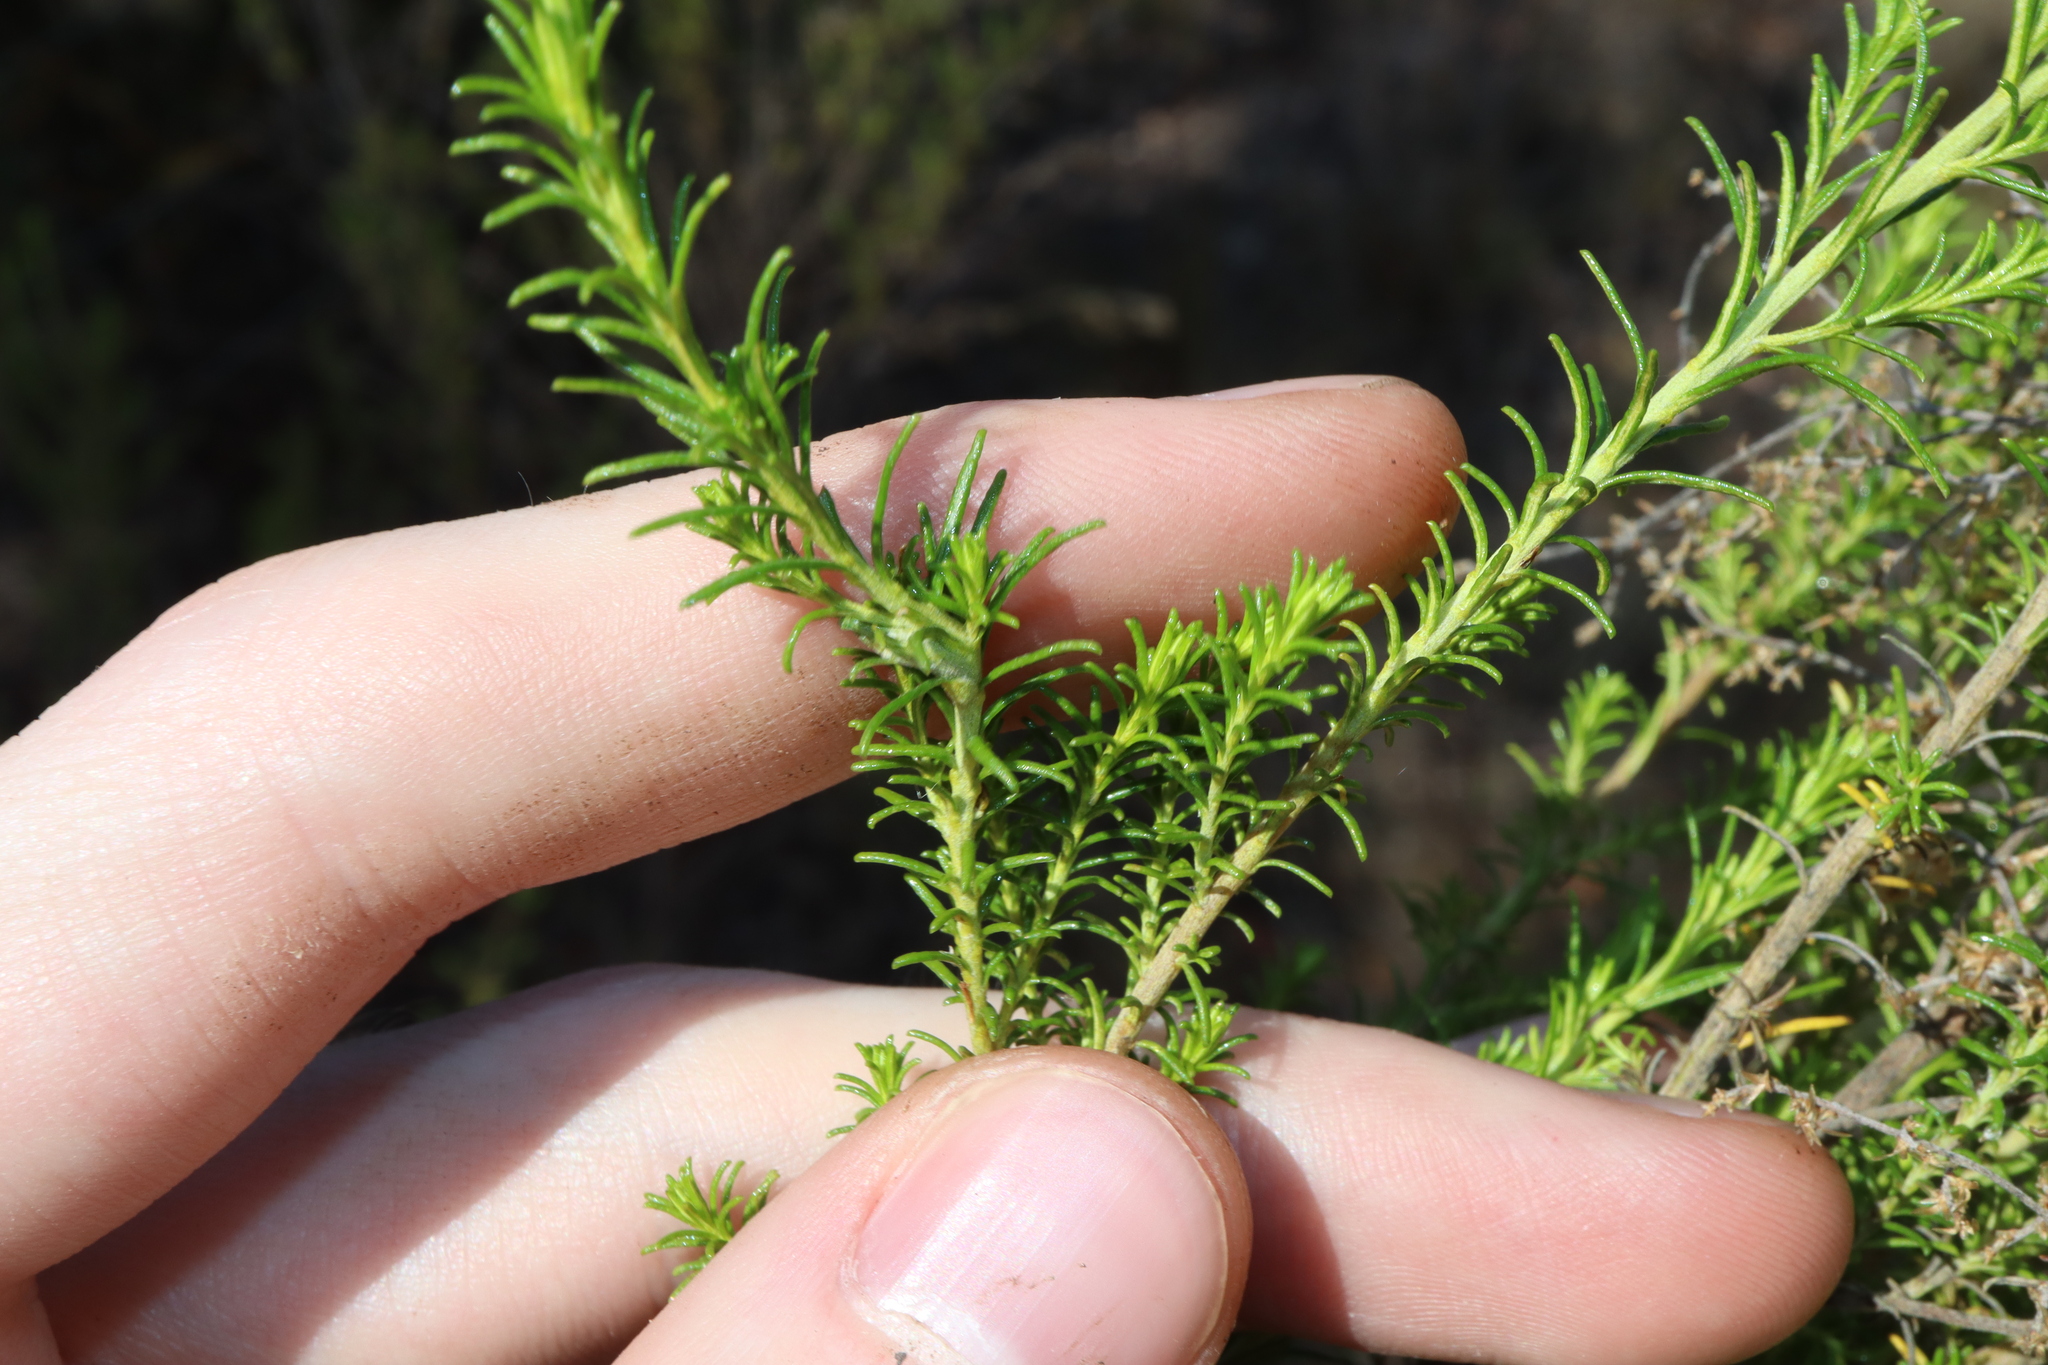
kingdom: Plantae
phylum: Tracheophyta
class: Magnoliopsida
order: Asterales
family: Asteraceae
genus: Cassinia
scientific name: Cassinia sifton
